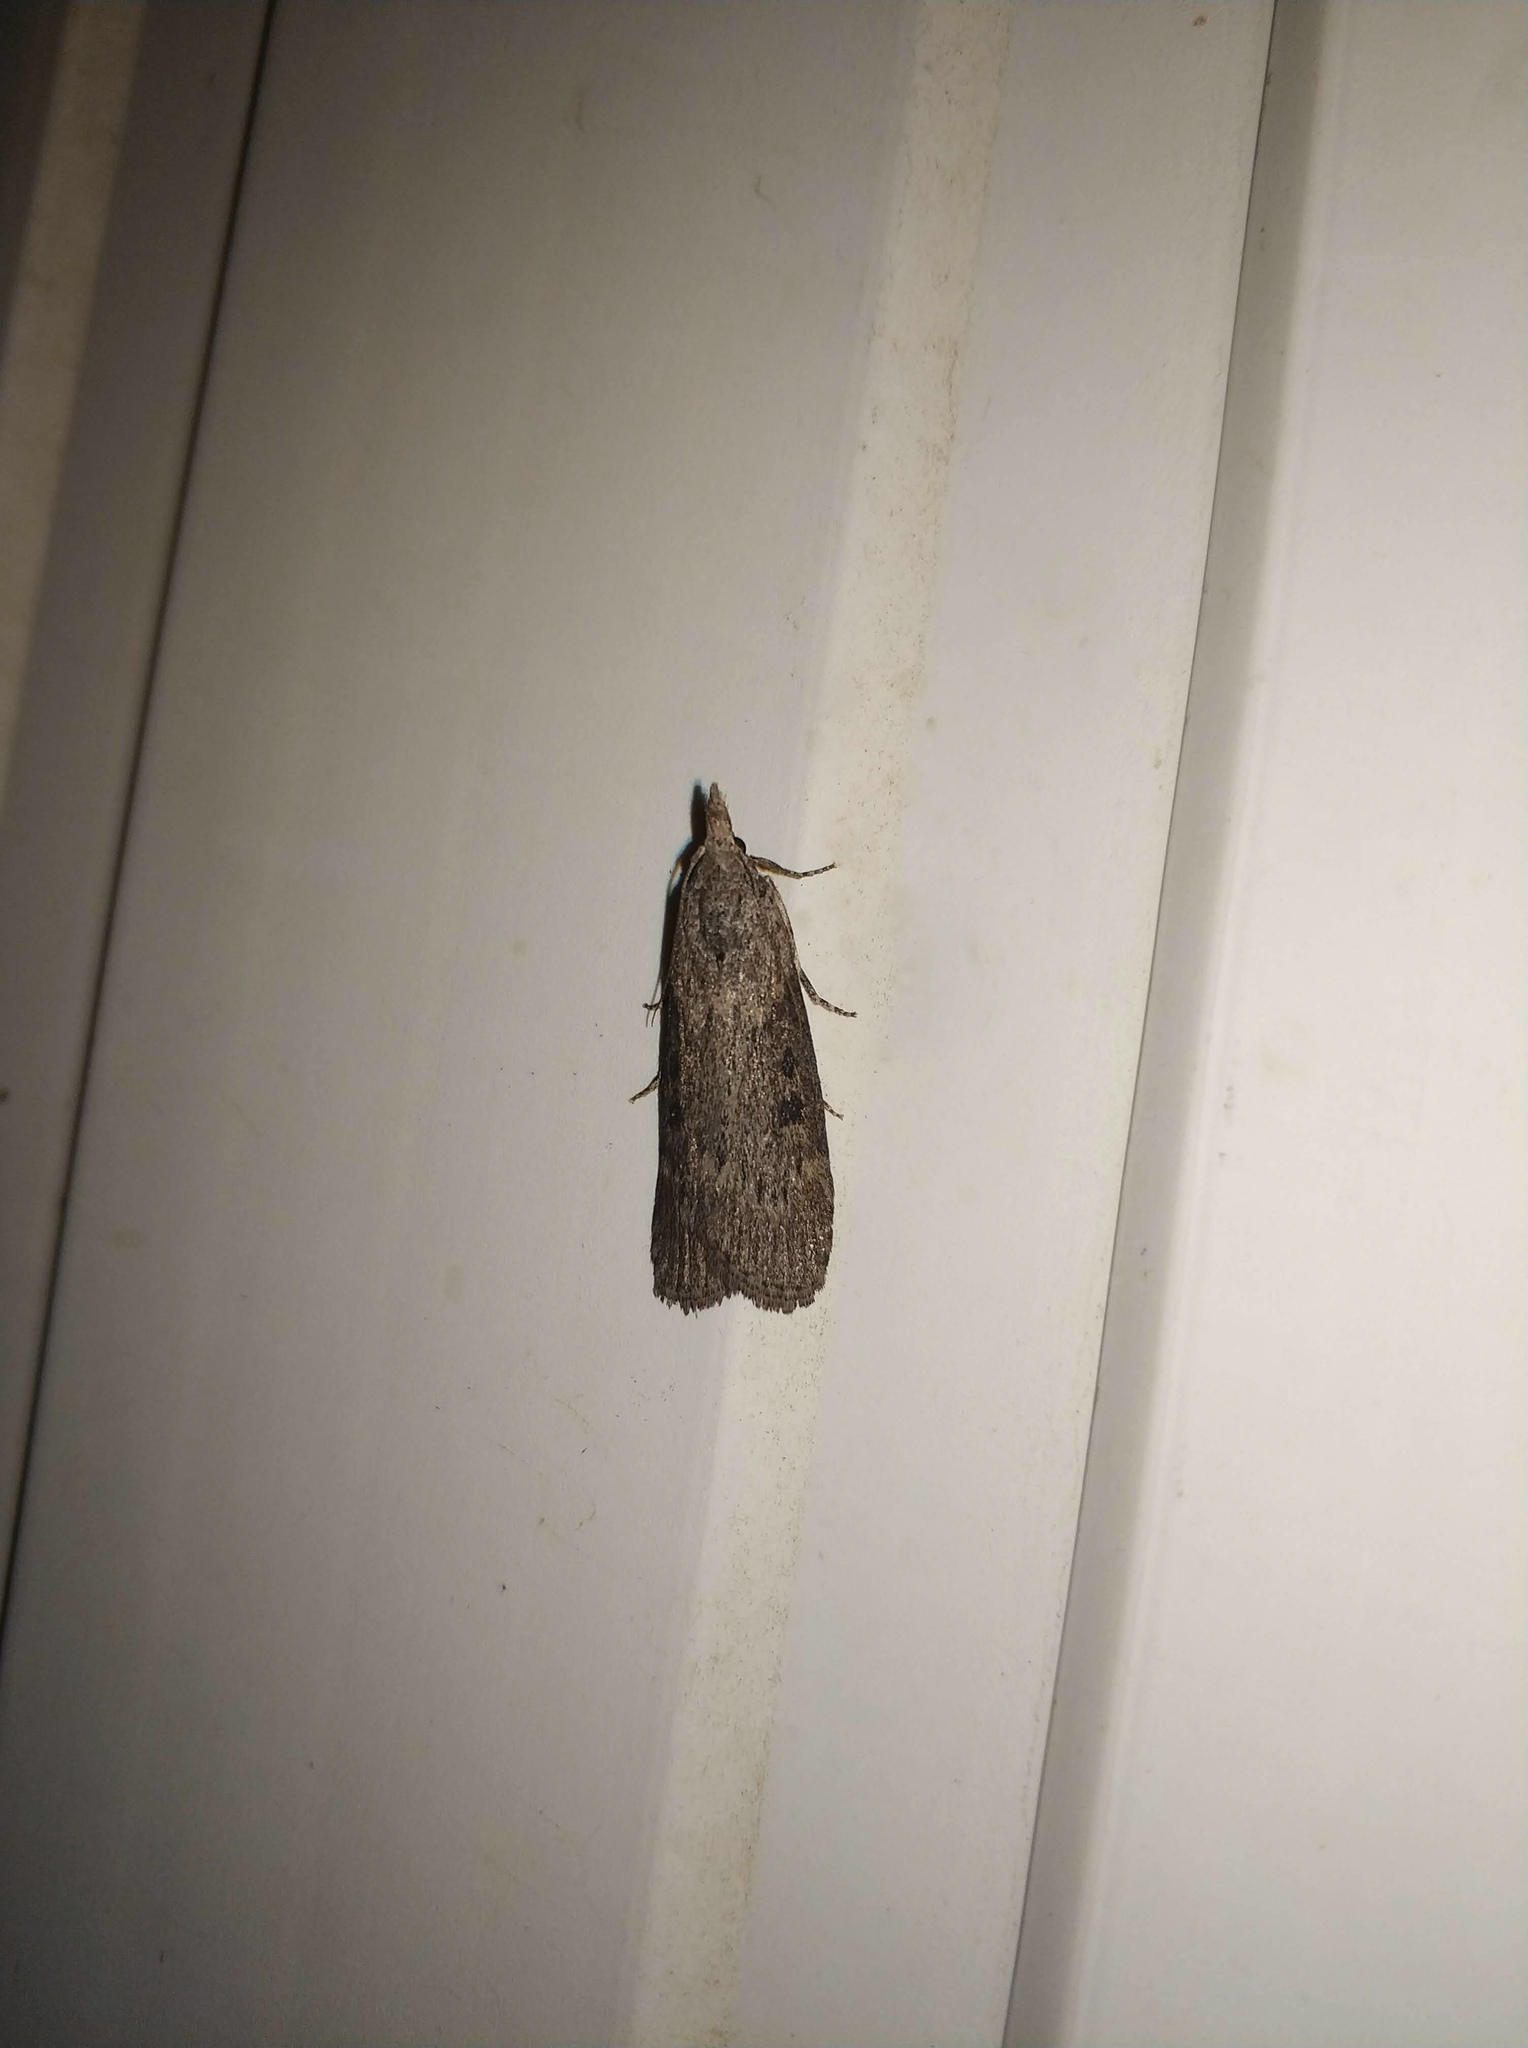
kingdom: Animalia
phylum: Arthropoda
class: Insecta
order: Lepidoptera
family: Pyralidae
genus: Lamoria
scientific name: Lamoria anella
